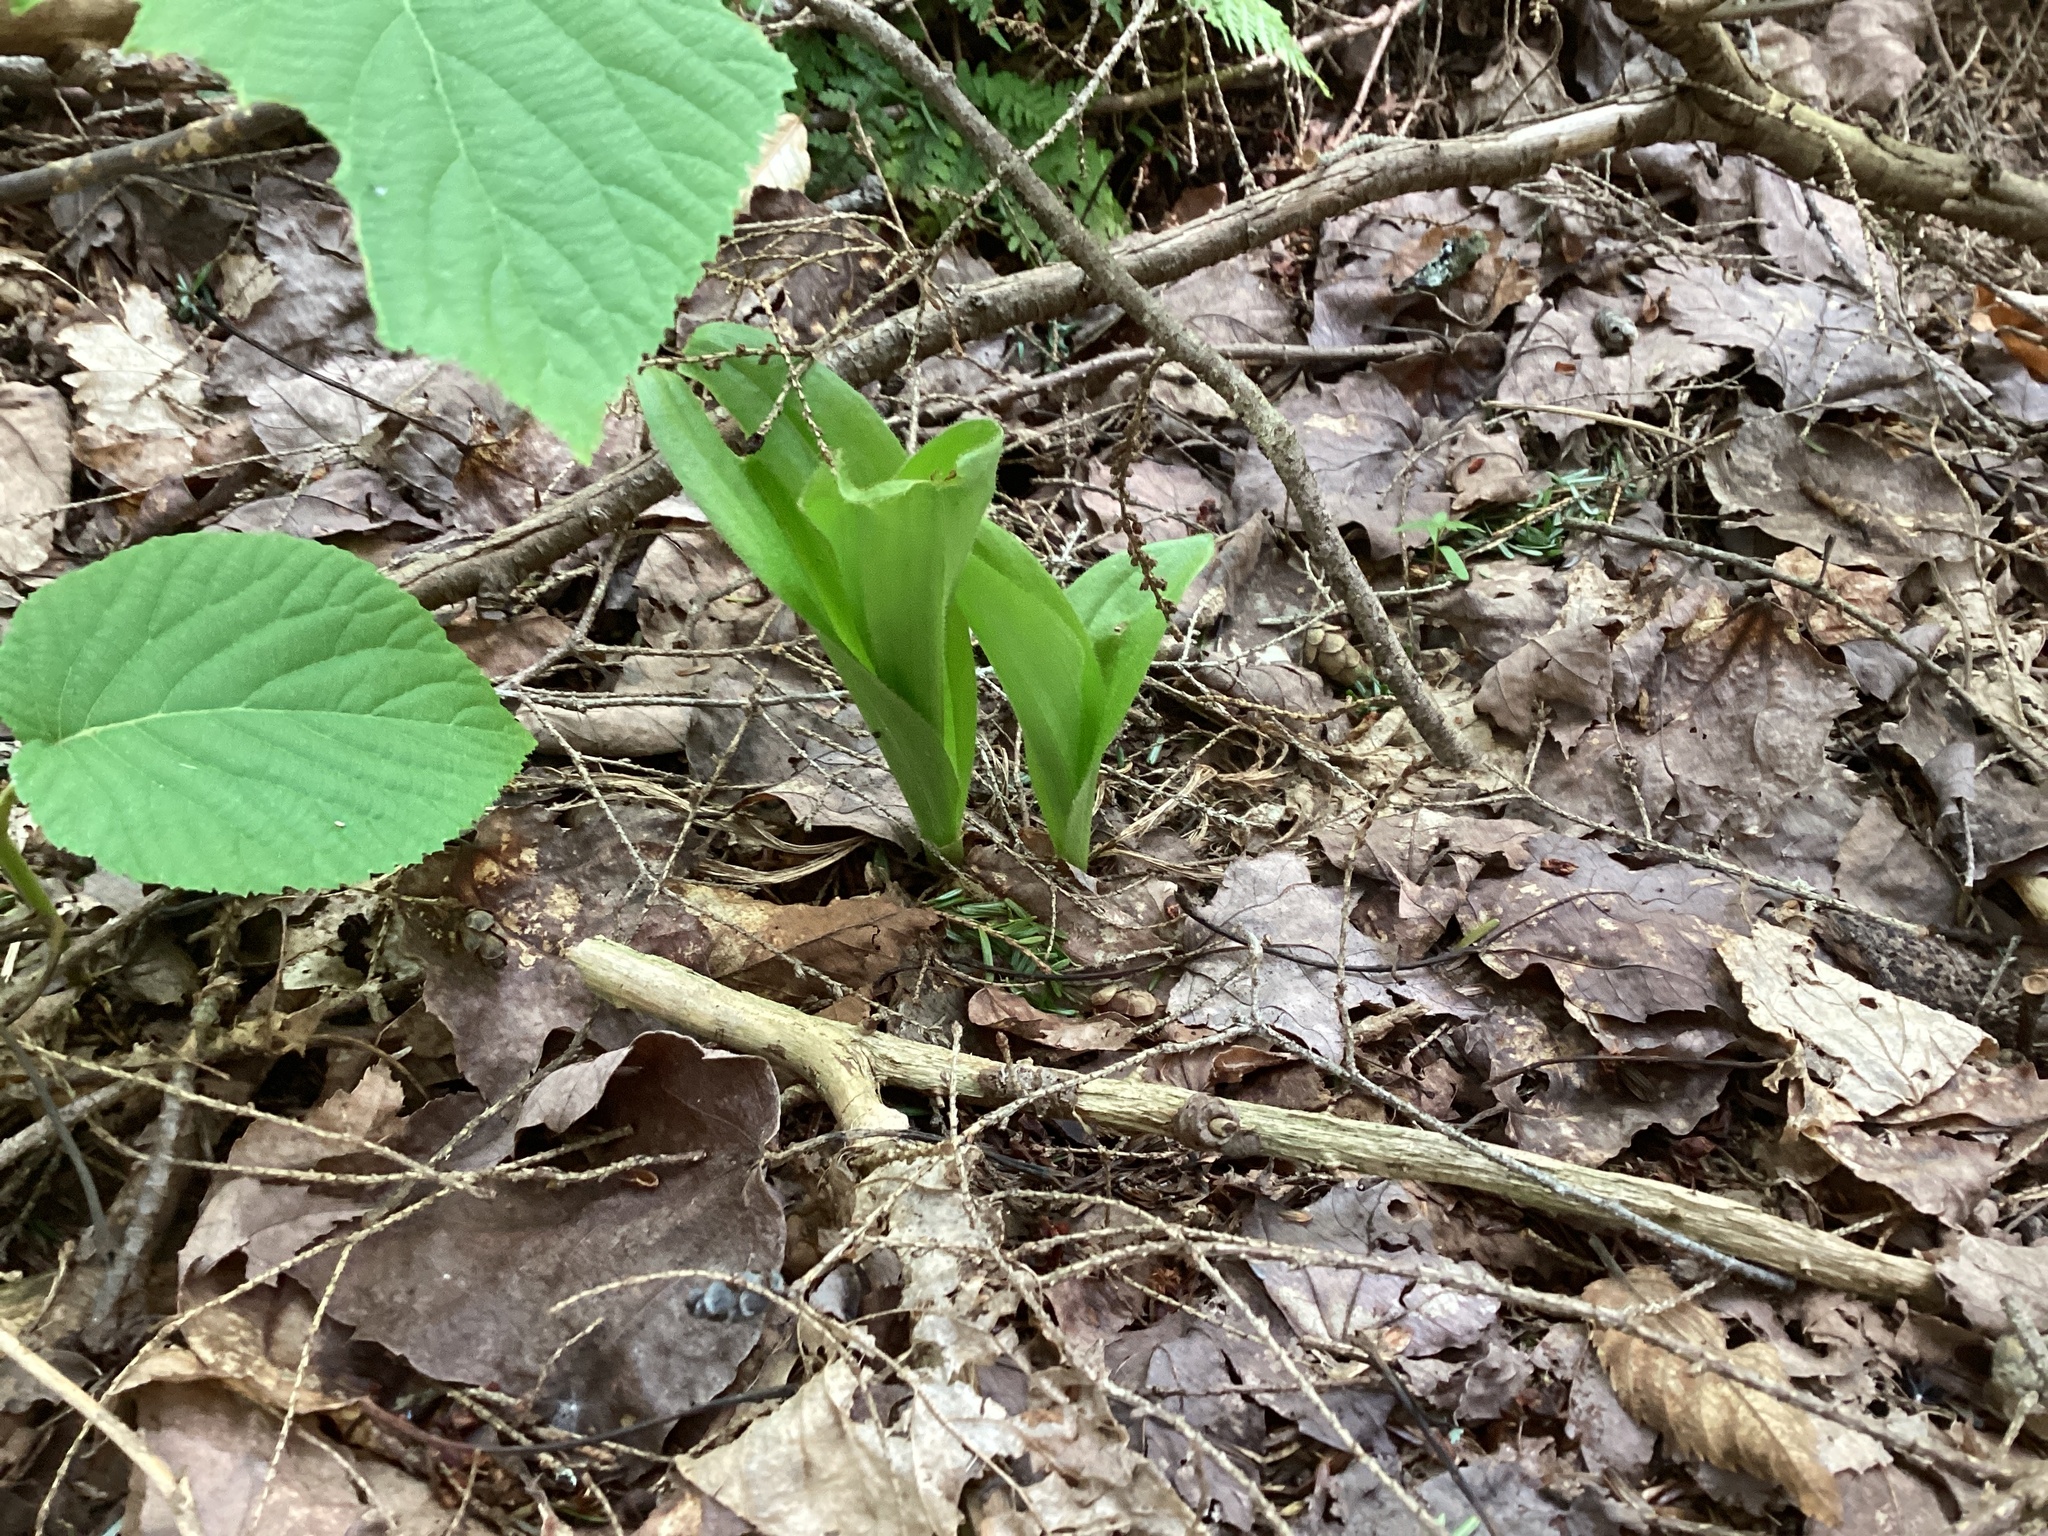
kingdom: Plantae
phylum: Tracheophyta
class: Liliopsida
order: Asparagales
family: Orchidaceae
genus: Epipactis
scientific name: Epipactis helleborine
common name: Broad-leaved helleborine
